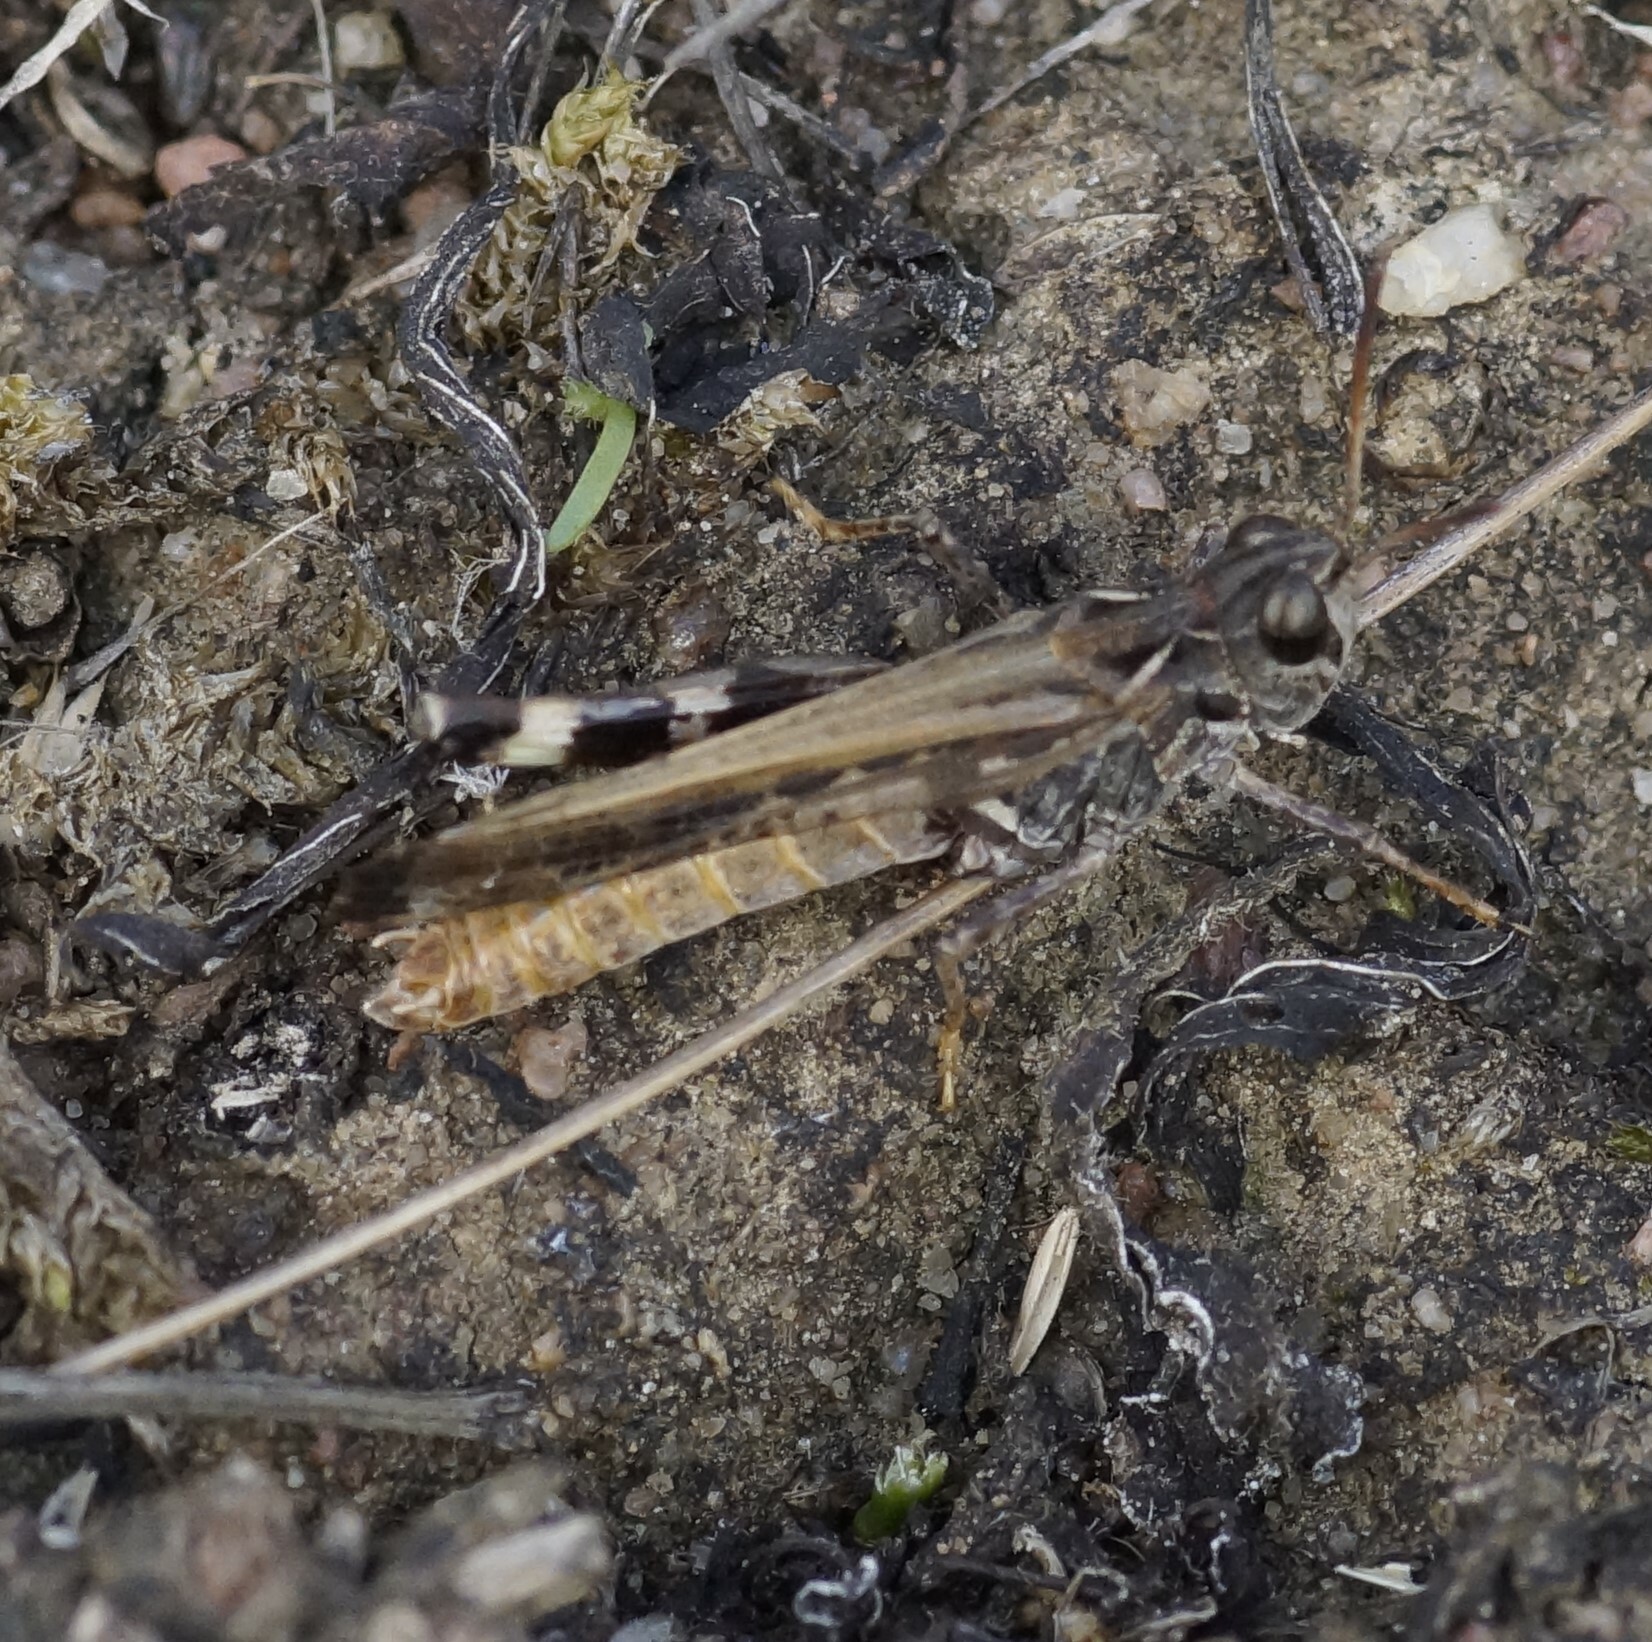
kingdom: Animalia
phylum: Arthropoda
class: Insecta
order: Orthoptera
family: Acrididae
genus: Austroicetes
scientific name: Austroicetes vulgaris
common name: Southeastern austroicetes
